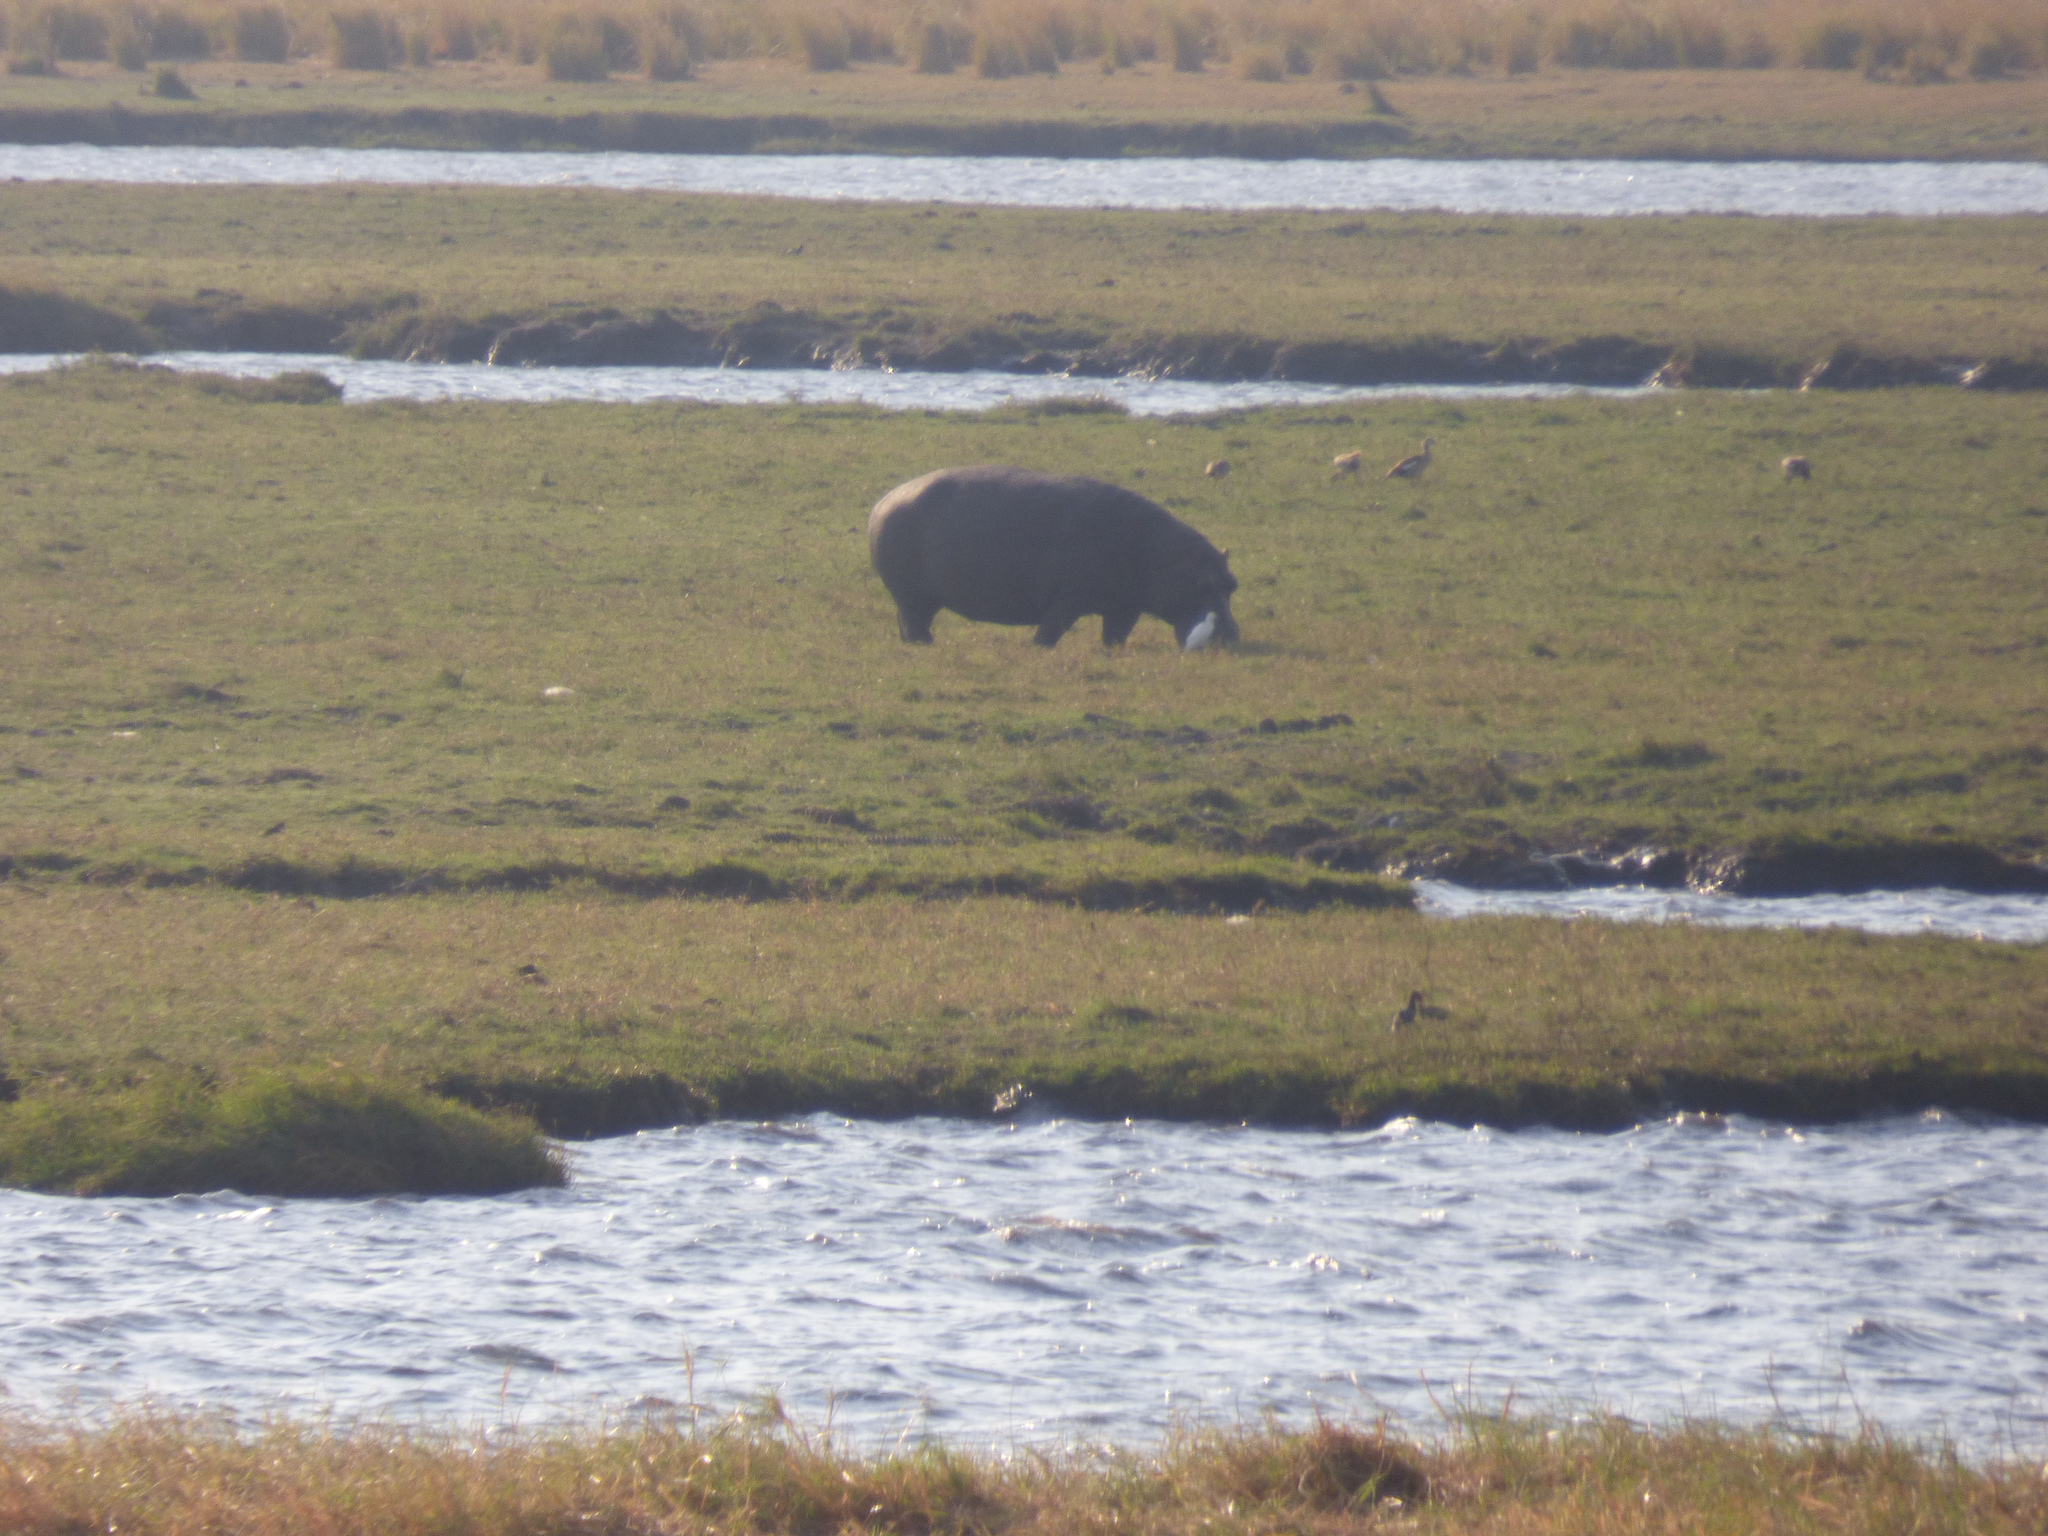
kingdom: Animalia
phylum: Chordata
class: Mammalia
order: Artiodactyla
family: Hippopotamidae
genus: Hippopotamus
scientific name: Hippopotamus amphibius
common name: Common hippopotamus
